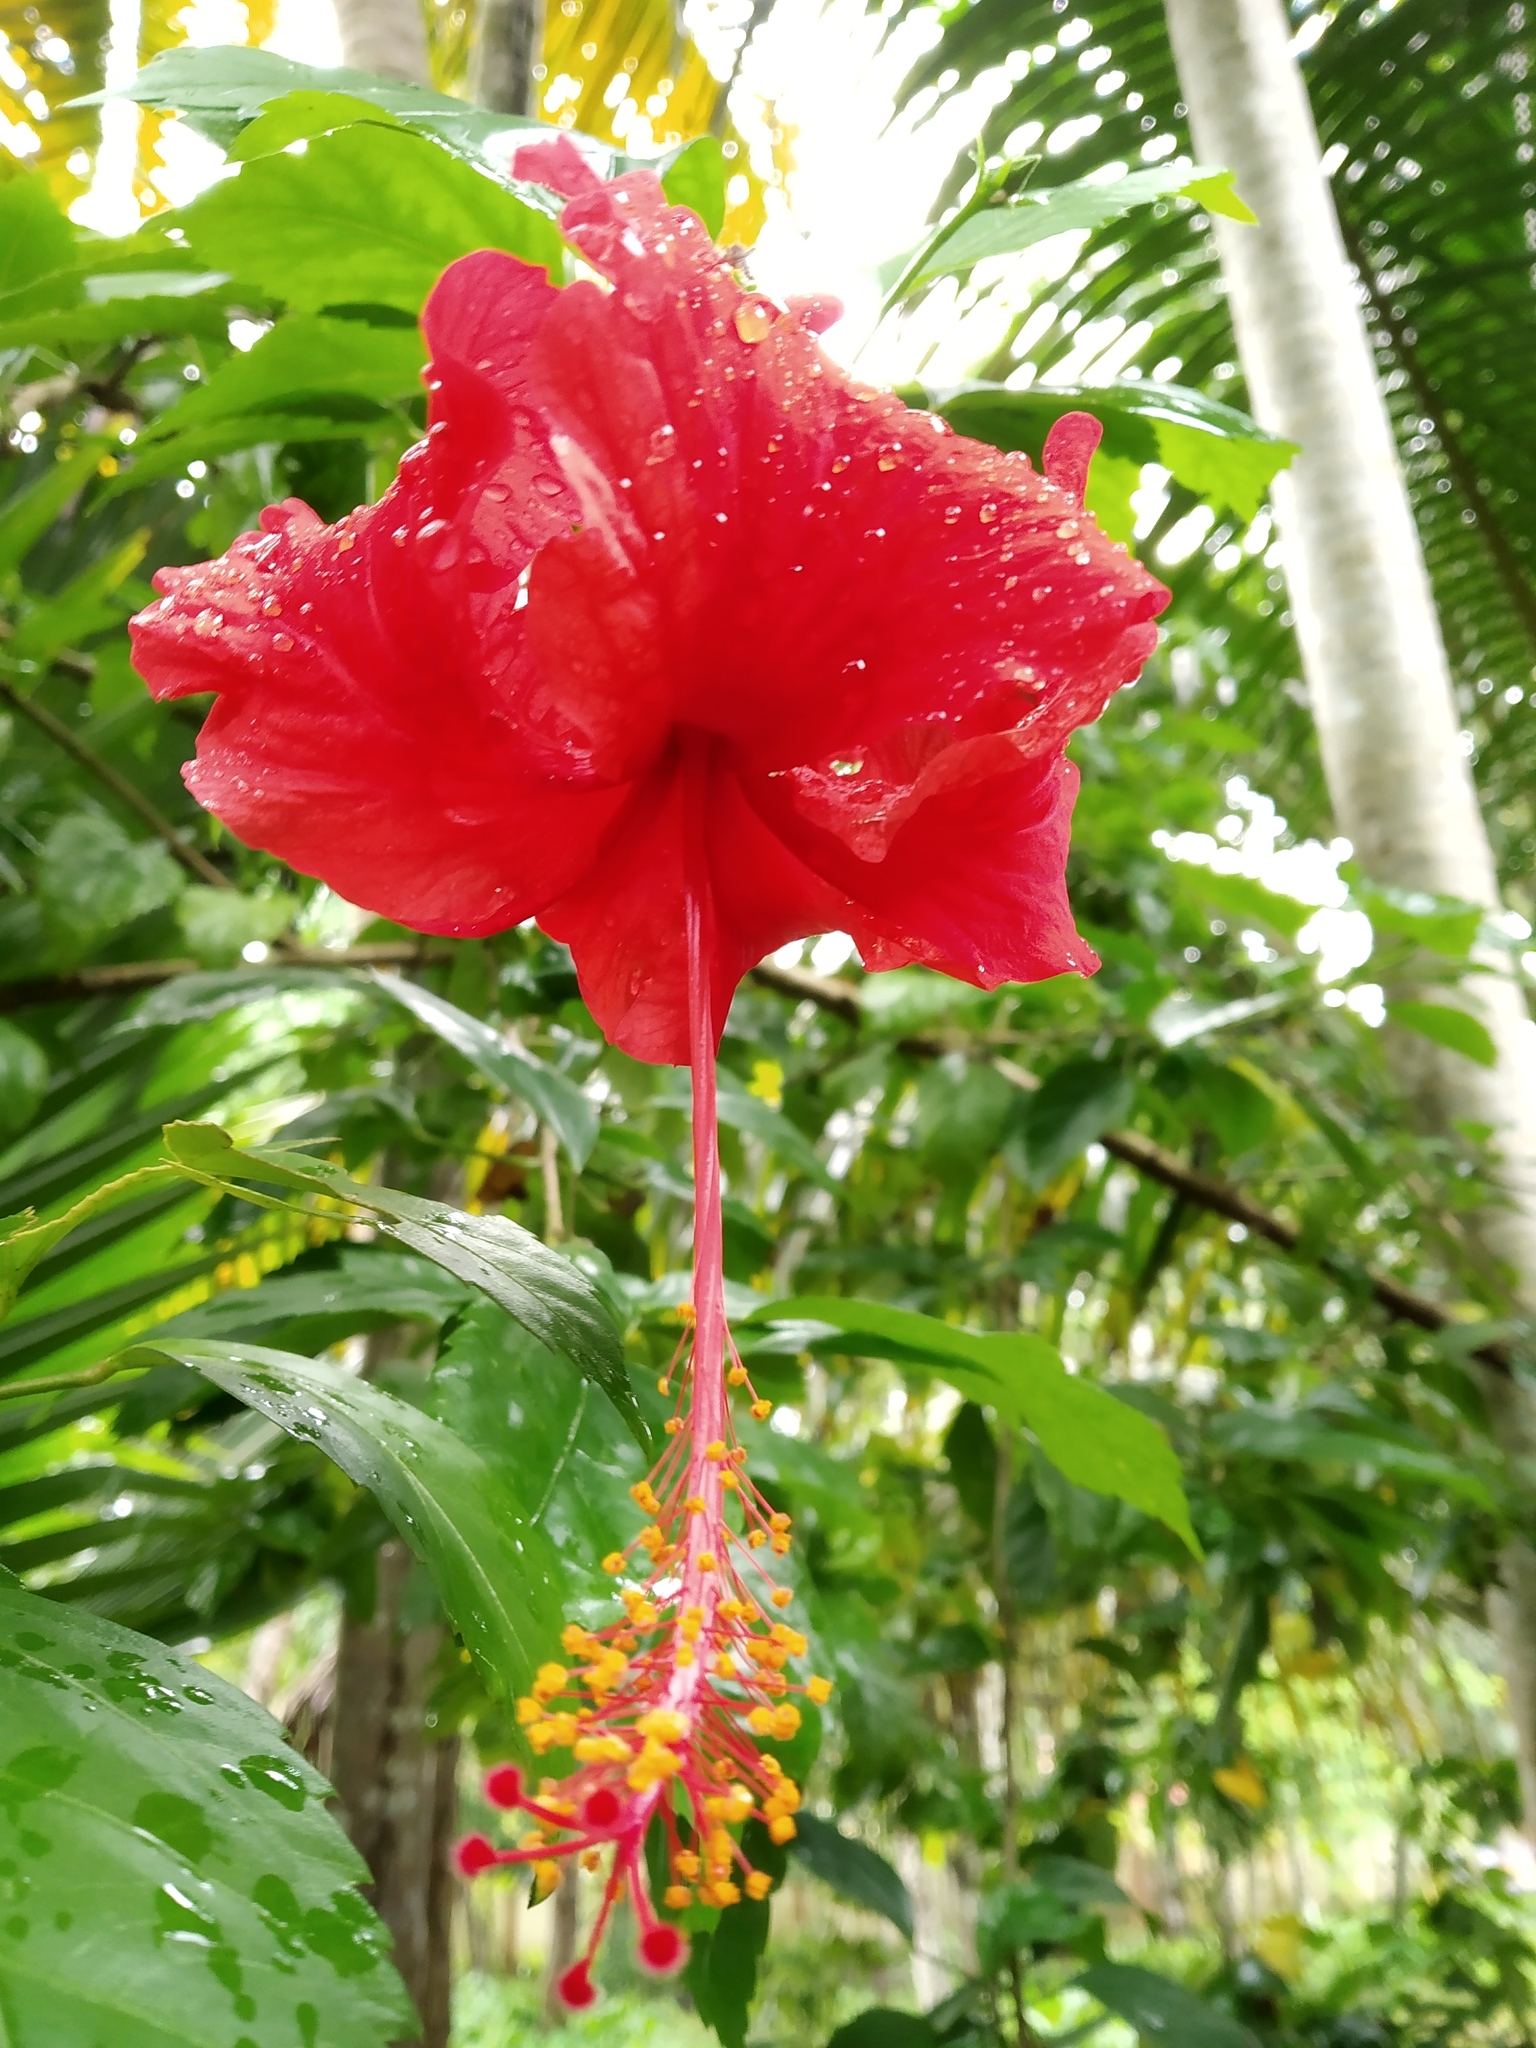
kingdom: Plantae
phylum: Tracheophyta
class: Magnoliopsida
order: Malvales
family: Malvaceae
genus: Hibiscus
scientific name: Hibiscus archeri
